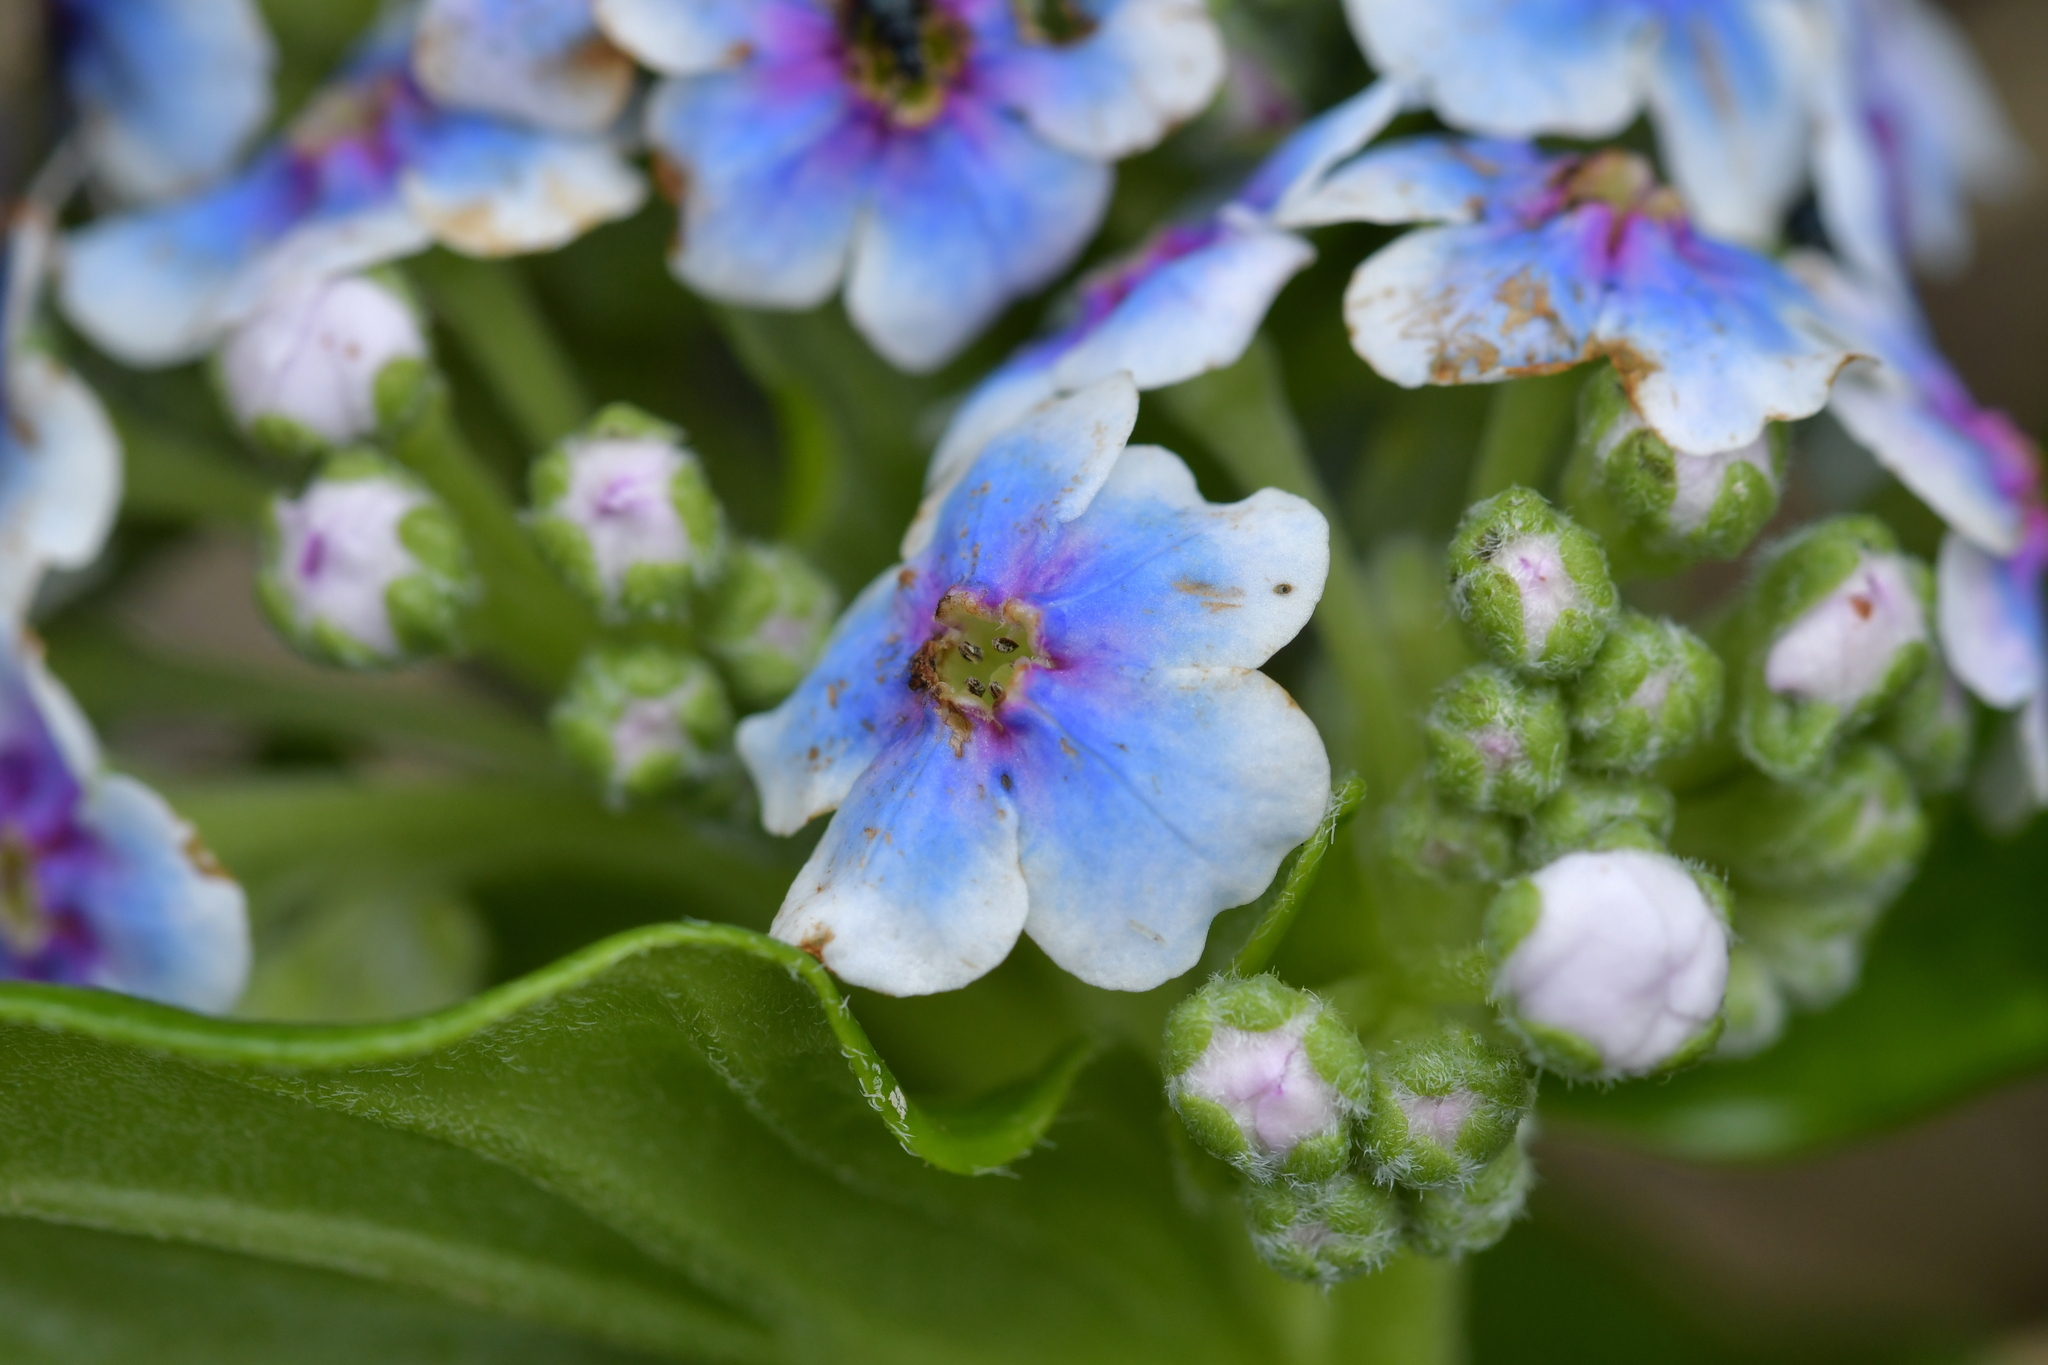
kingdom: Plantae
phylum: Tracheophyta
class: Magnoliopsida
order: Boraginales
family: Boraginaceae
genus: Myosotidium
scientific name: Myosotidium hortensia
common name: Giant forget-me-not
